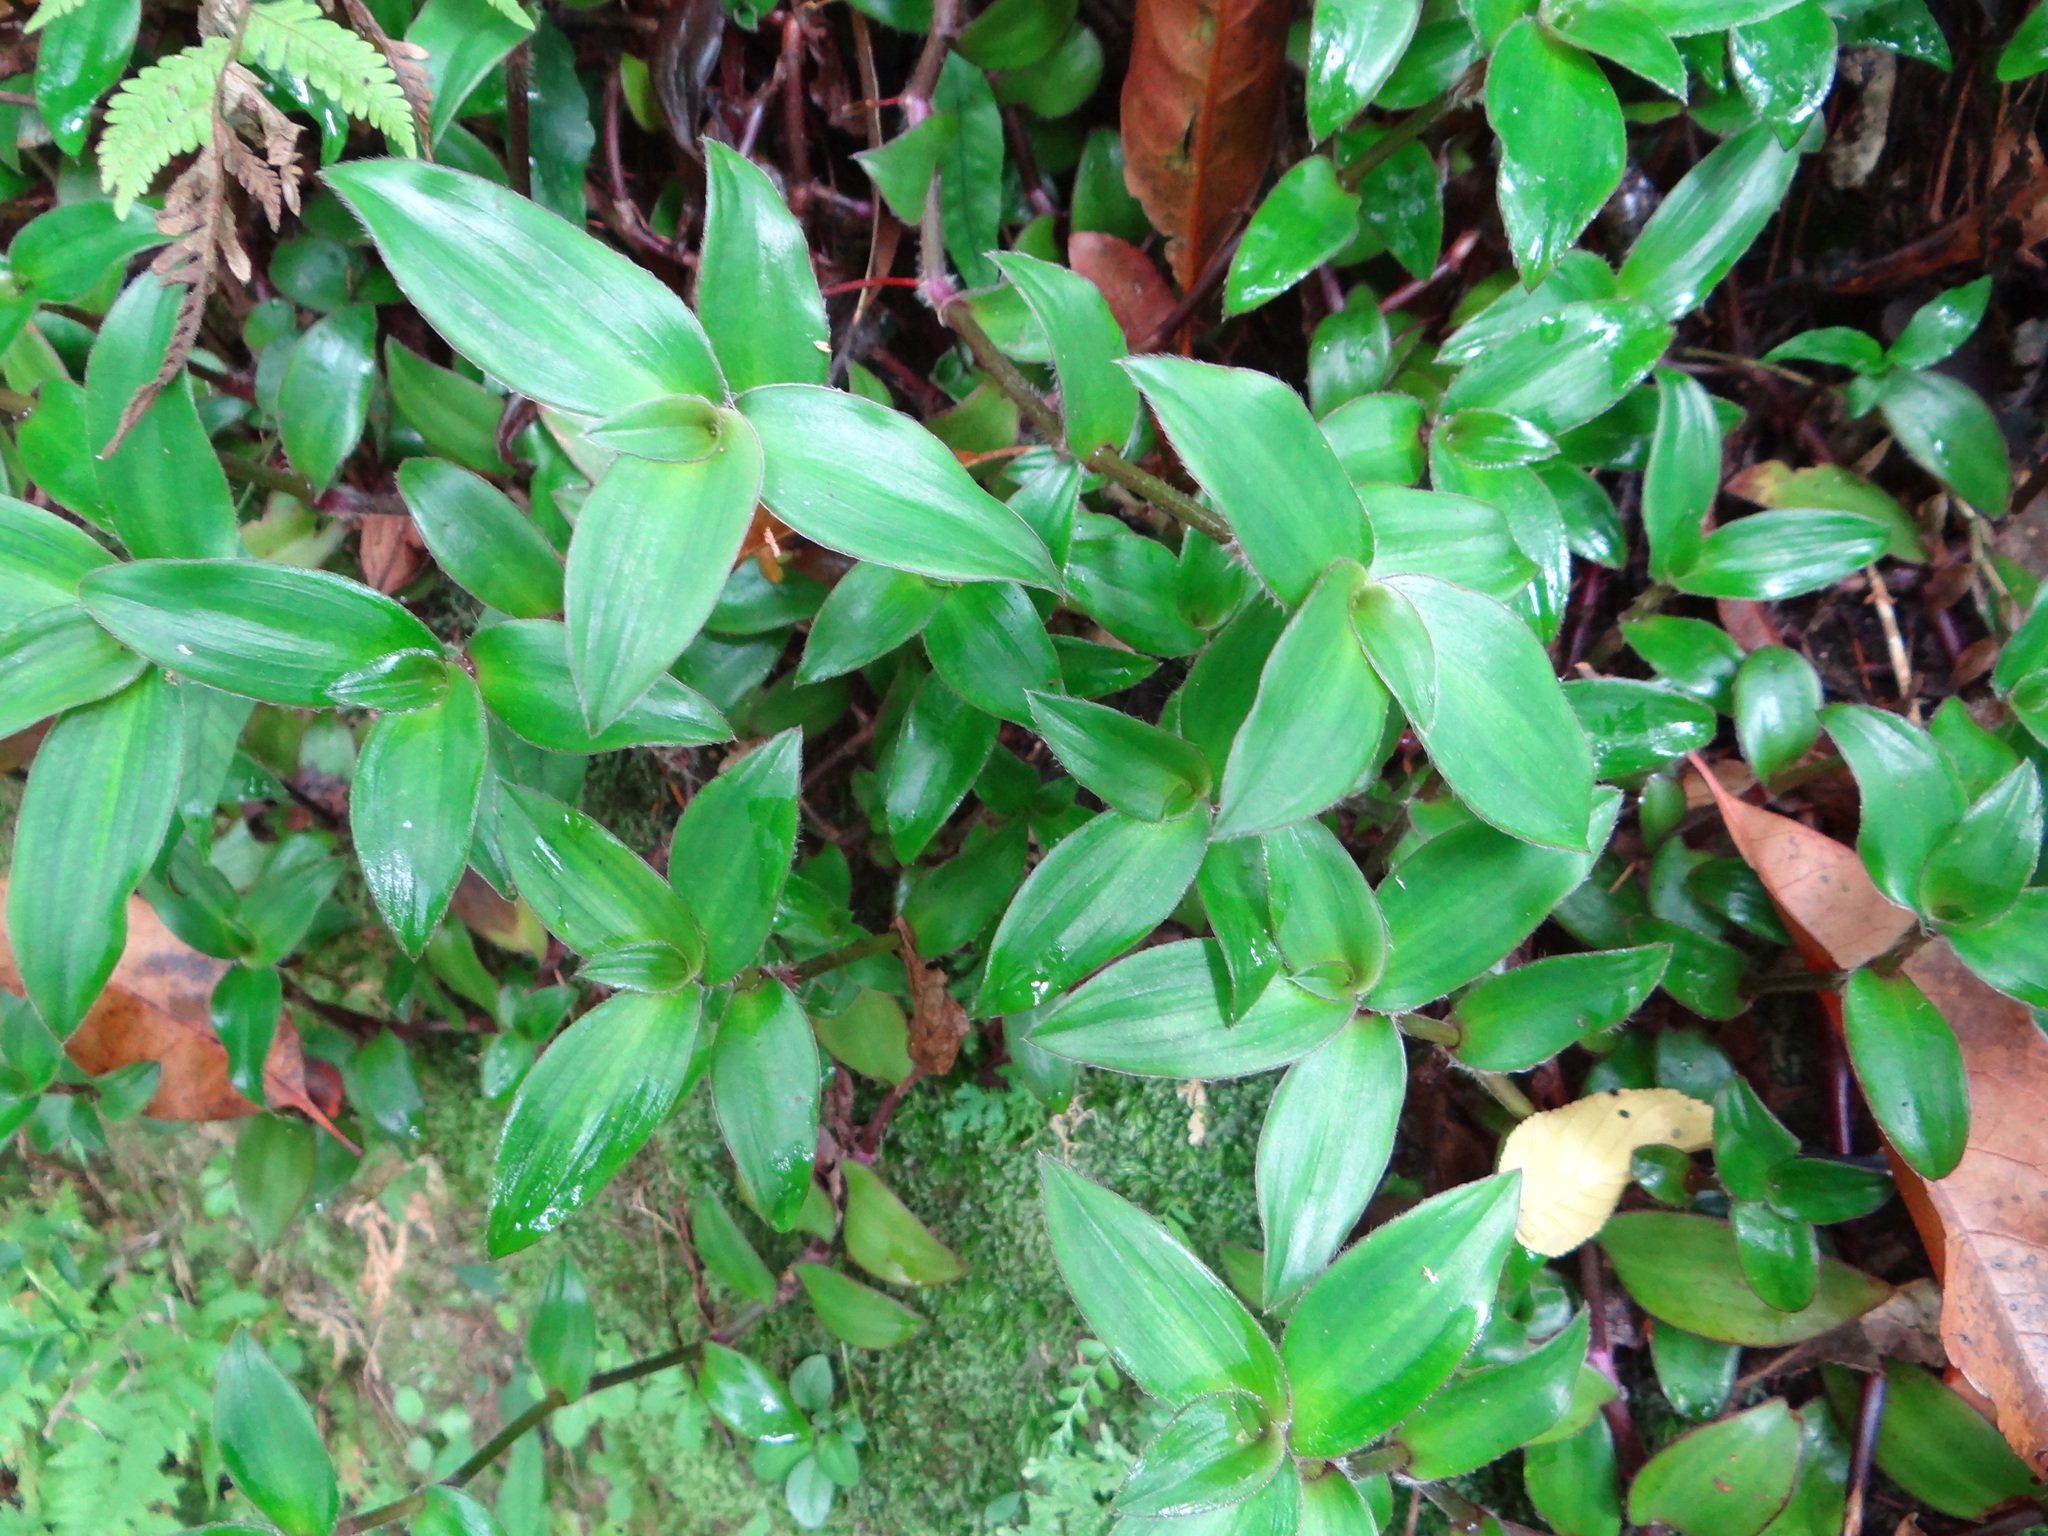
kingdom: Plantae
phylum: Tracheophyta
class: Liliopsida
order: Commelinales
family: Commelinaceae
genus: Cyanotis
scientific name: Cyanotis ciliata
